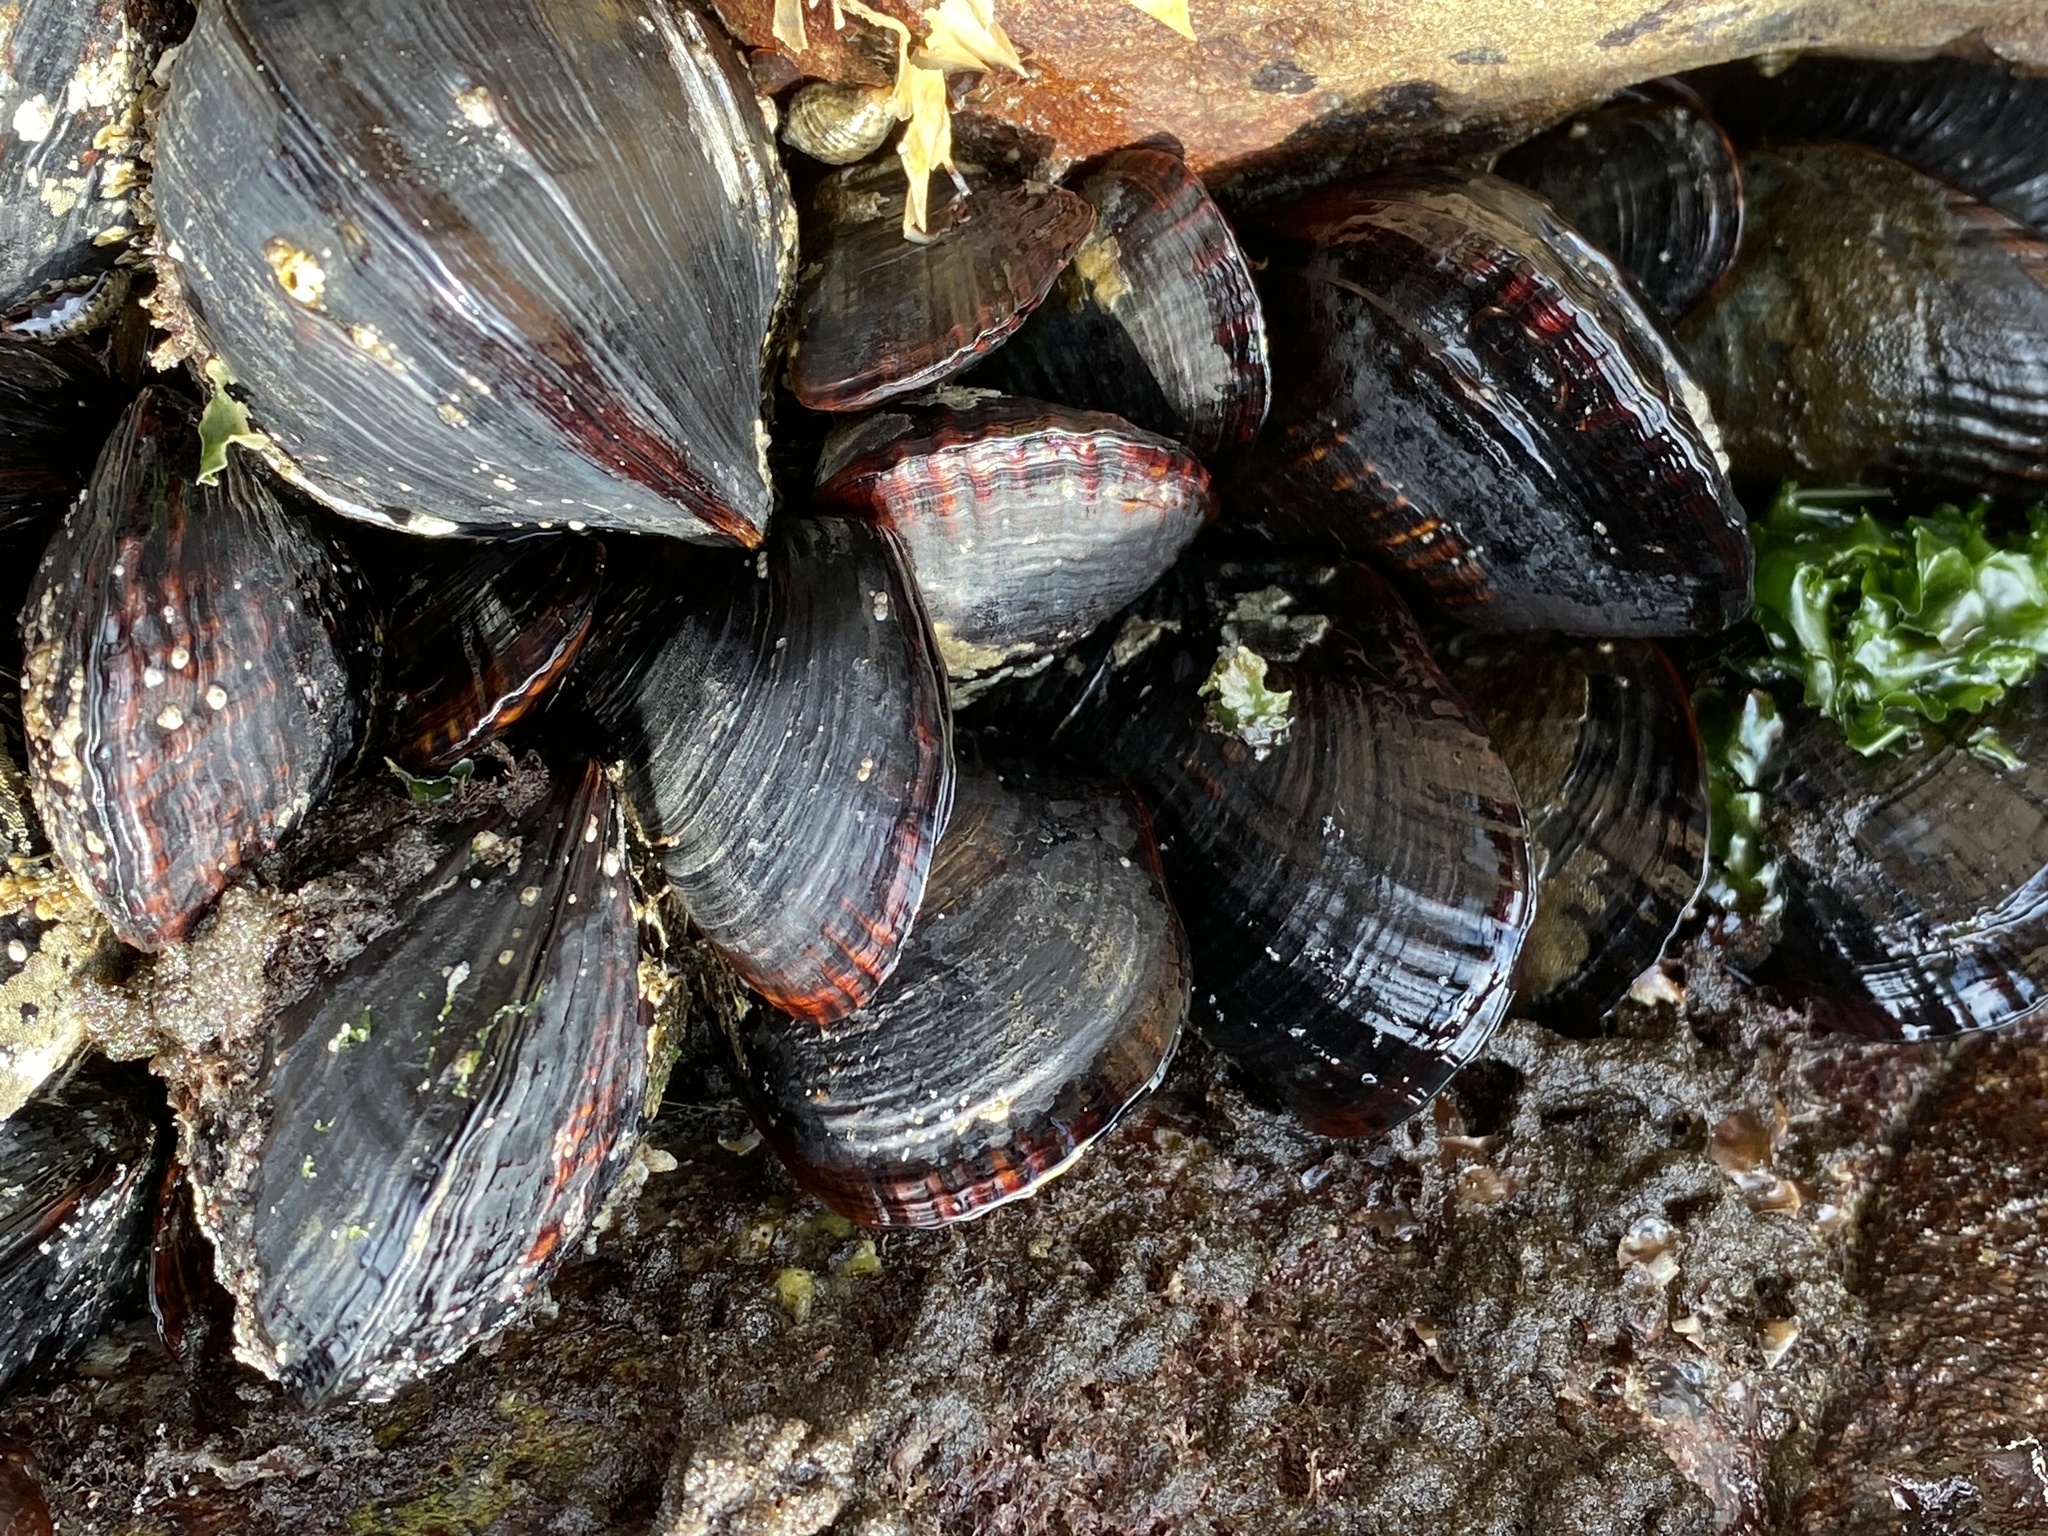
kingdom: Animalia
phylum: Mollusca
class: Bivalvia
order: Mytilida
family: Mytilidae
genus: Mytilus
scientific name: Mytilus californianus
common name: California mussel
